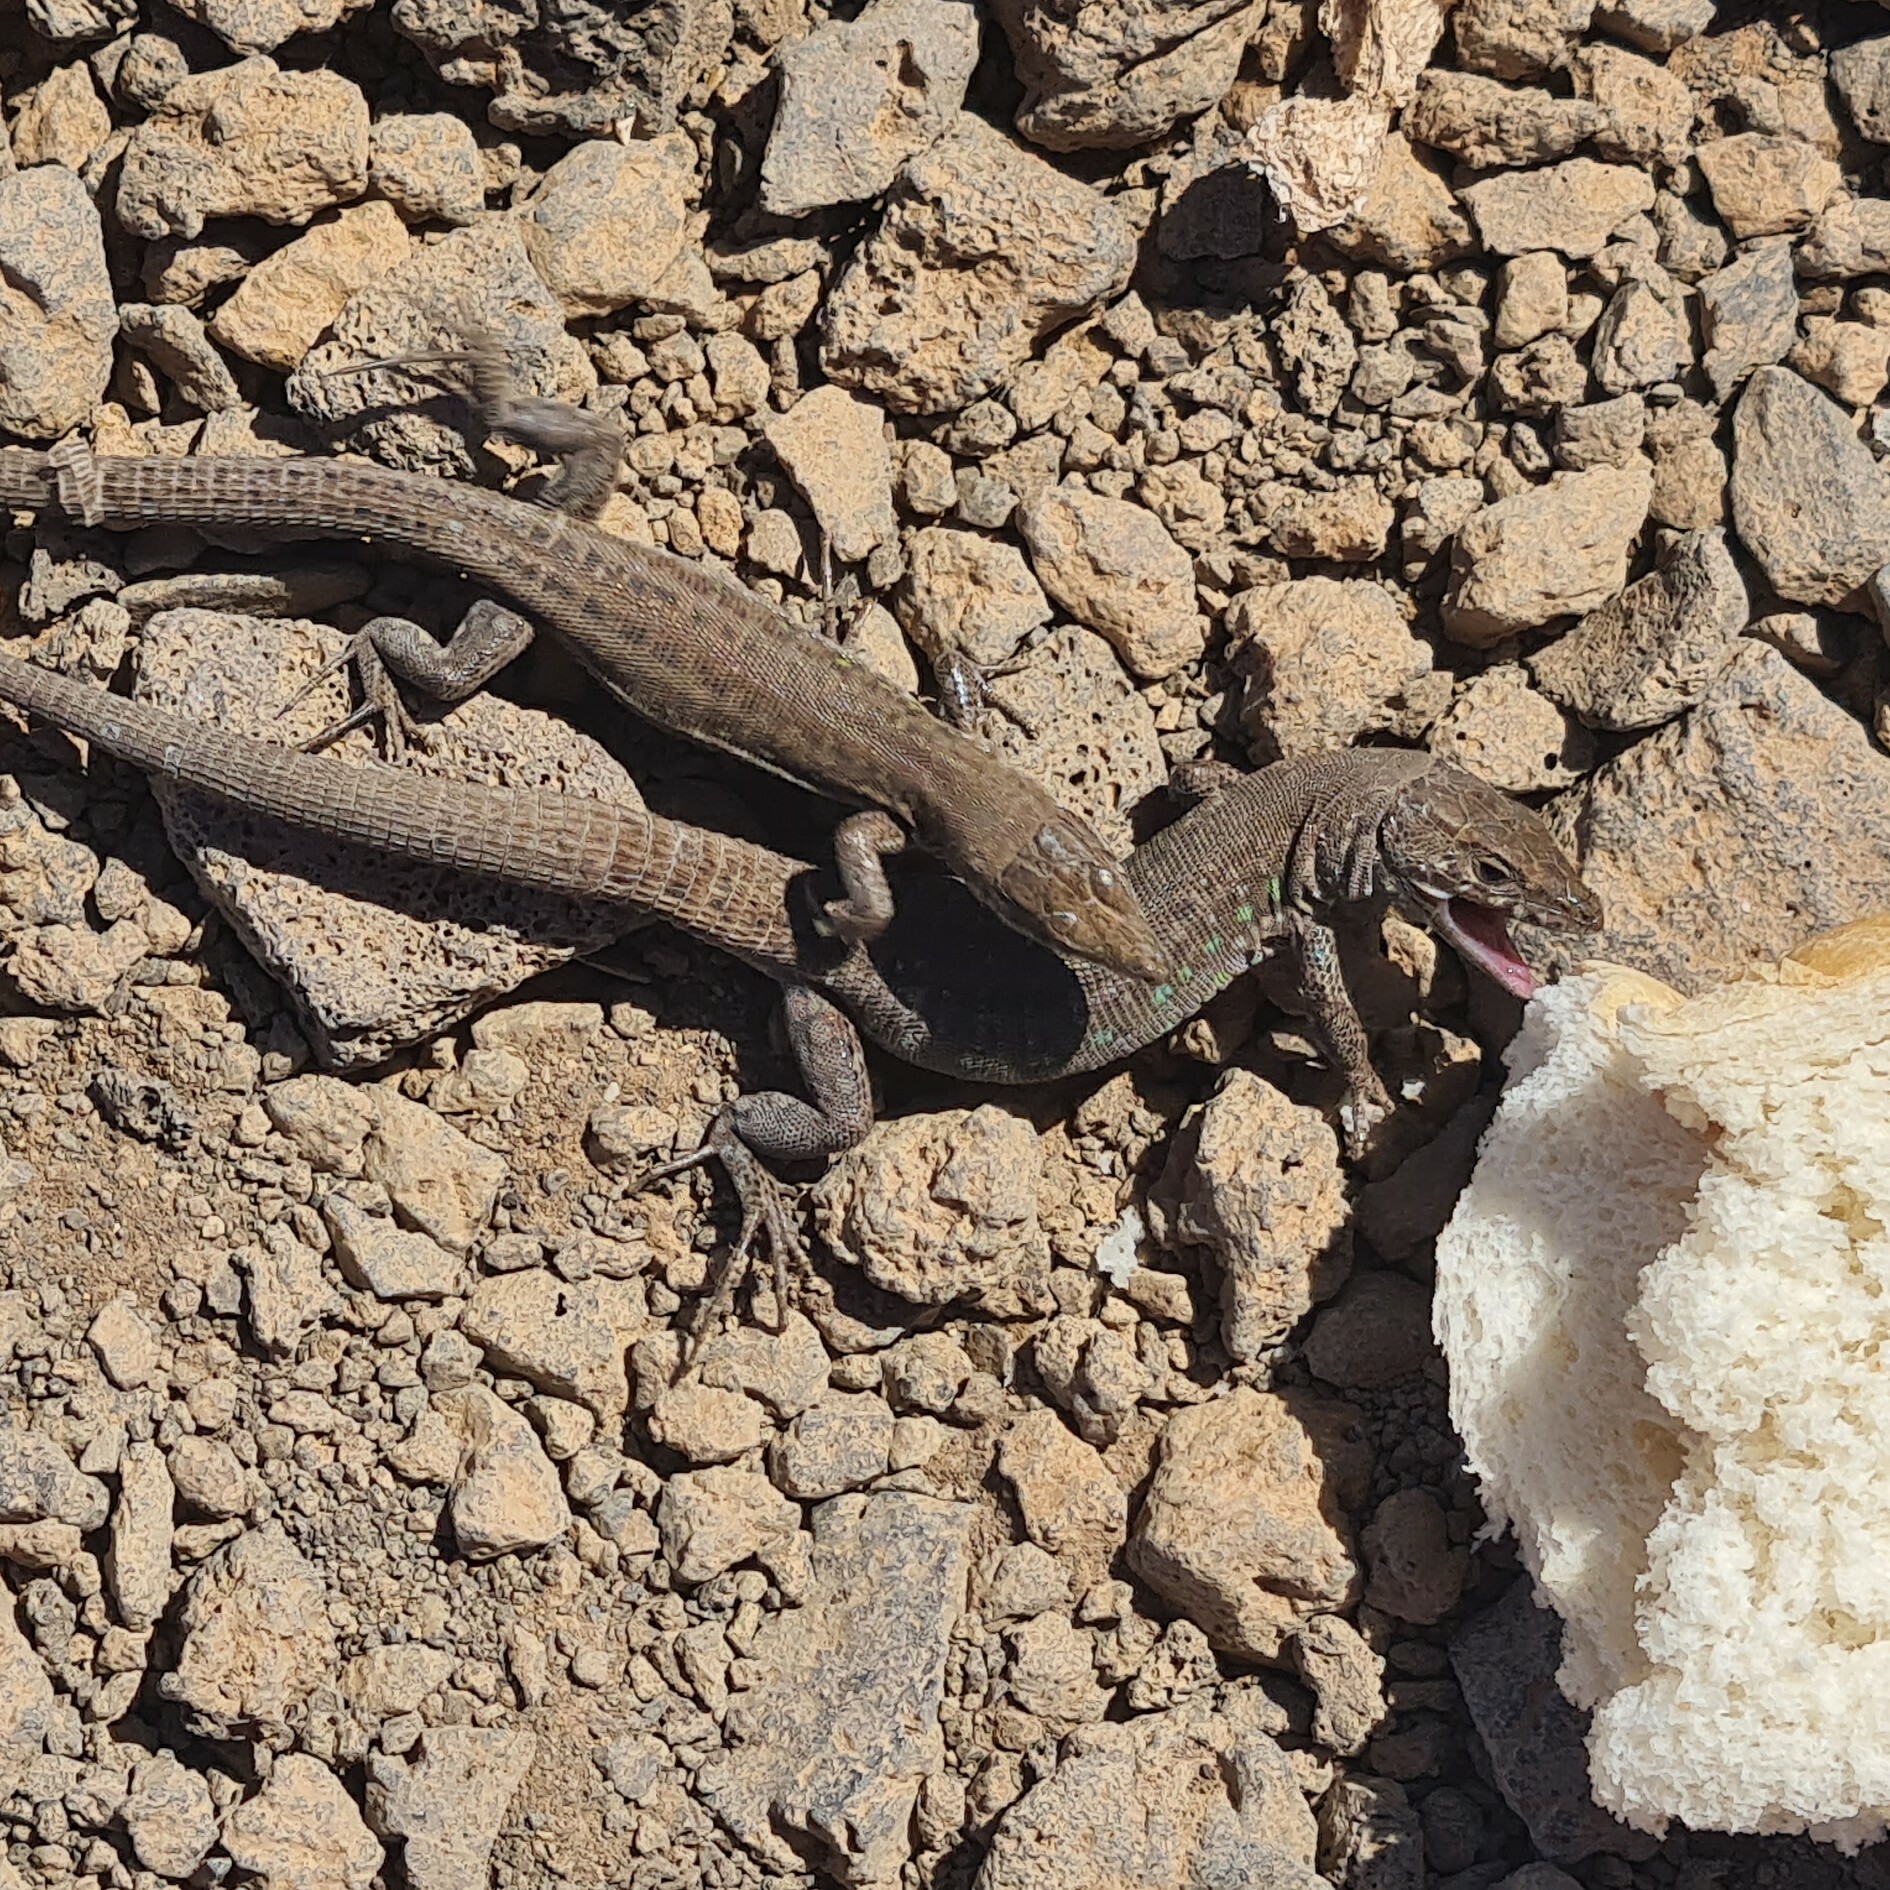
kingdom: Animalia
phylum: Chordata
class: Squamata
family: Lacertidae
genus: Gallotia
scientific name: Gallotia atlantica
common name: Atlantic lizard
